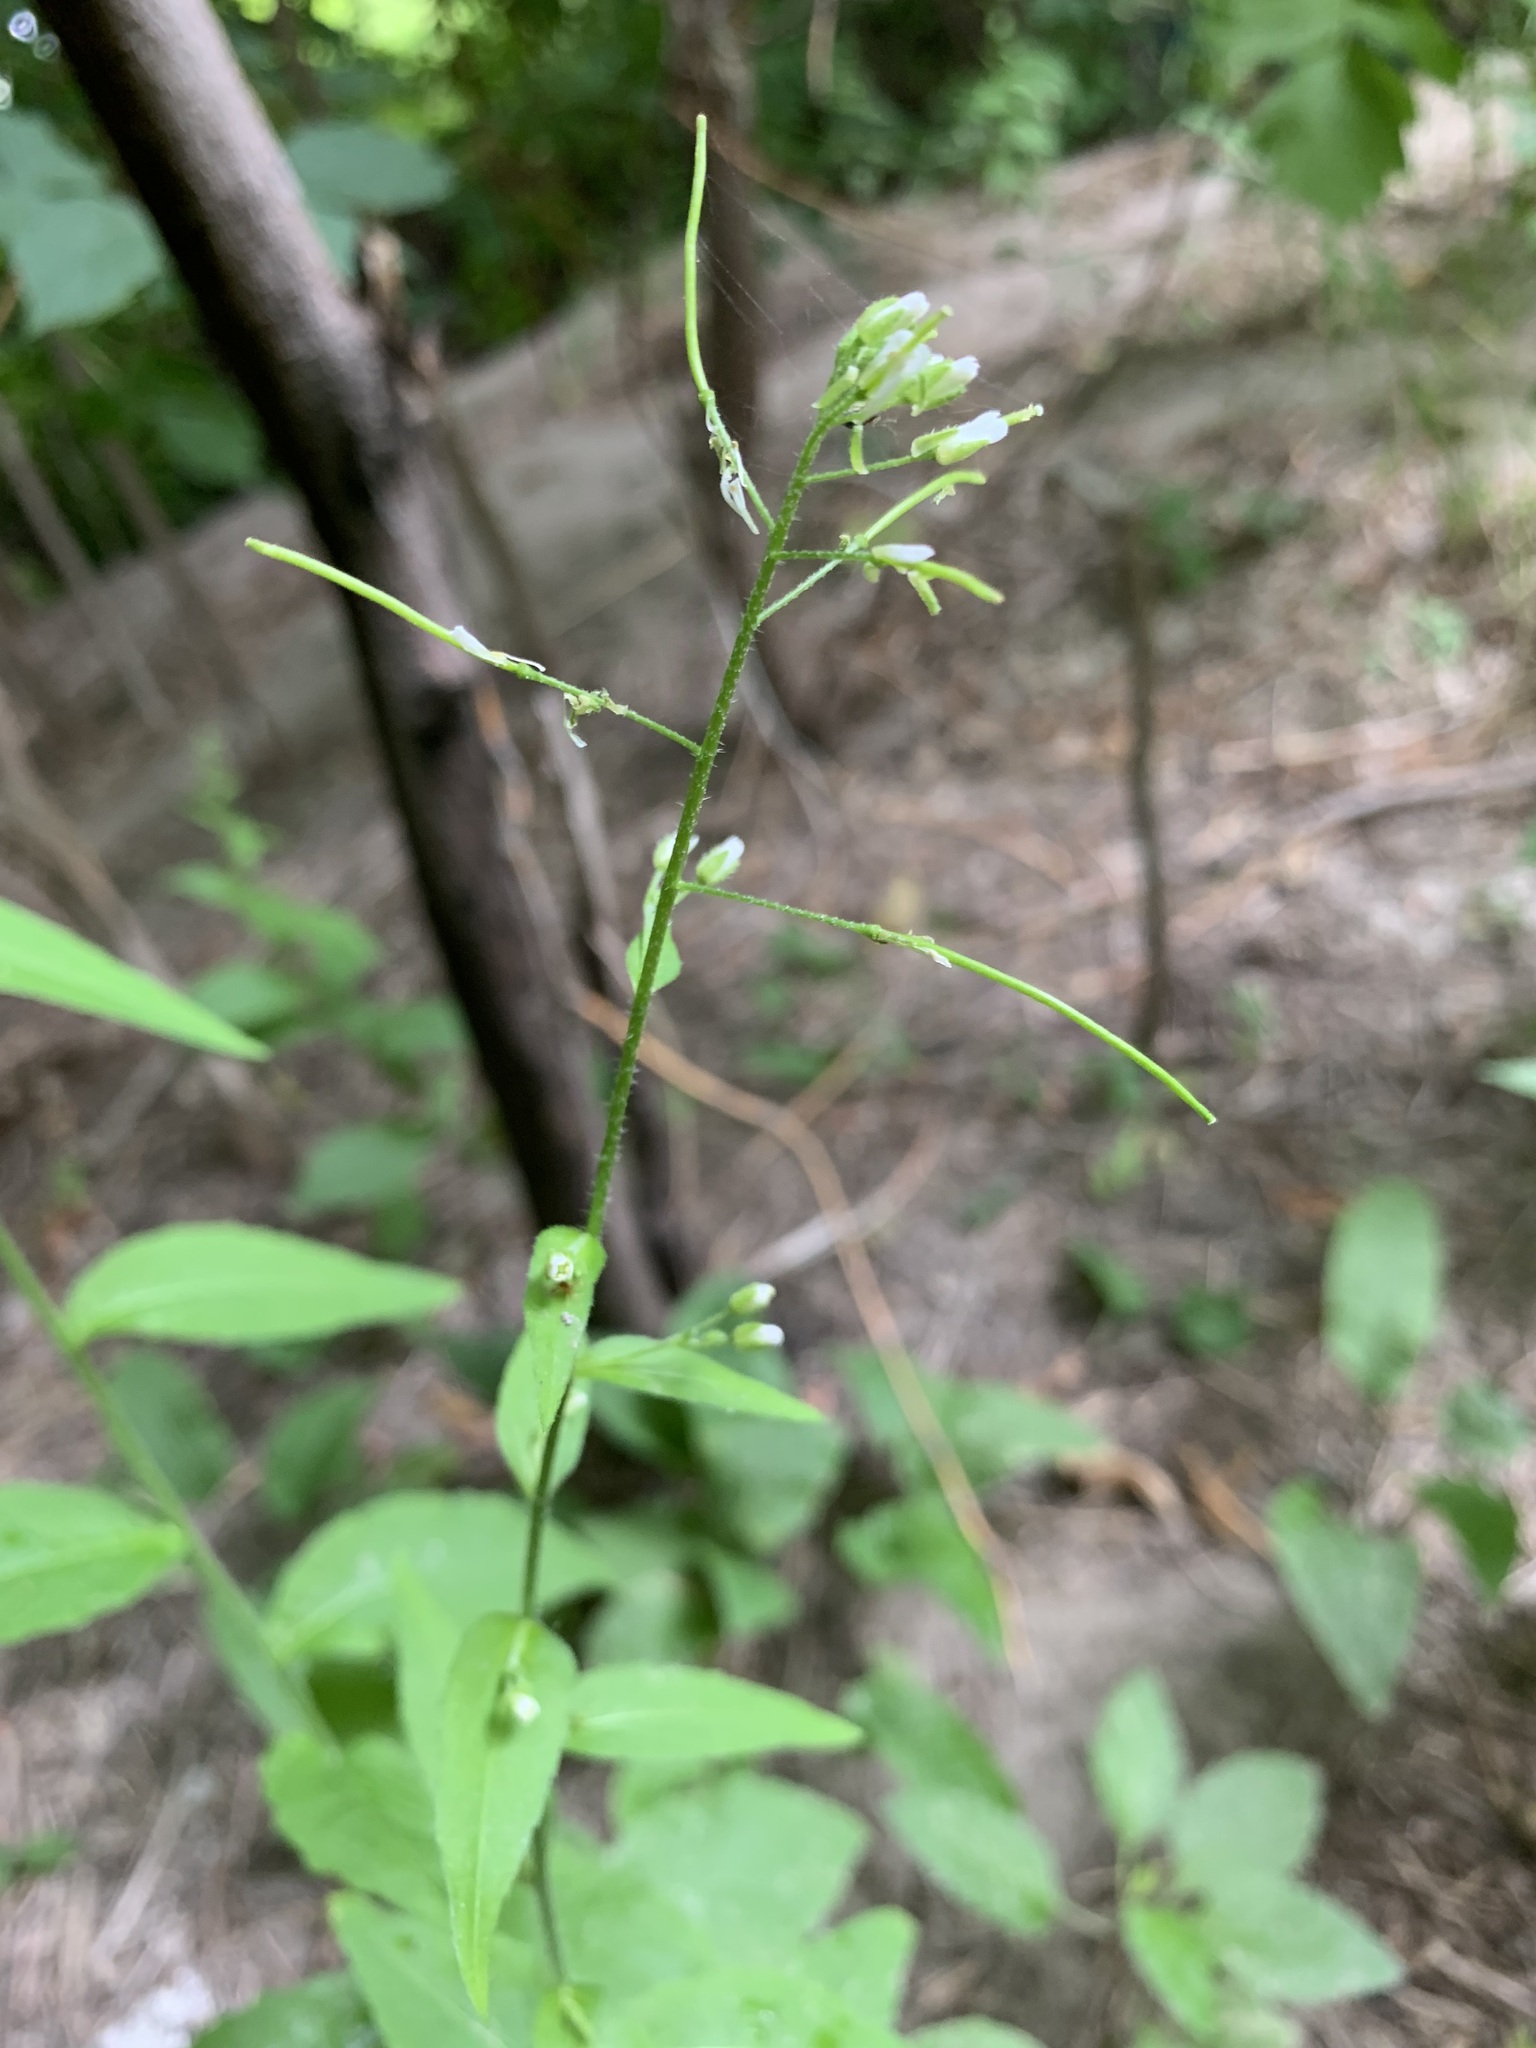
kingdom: Plantae
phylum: Tracheophyta
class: Magnoliopsida
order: Brassicales
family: Brassicaceae
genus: Catolobus
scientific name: Catolobus pendulus
